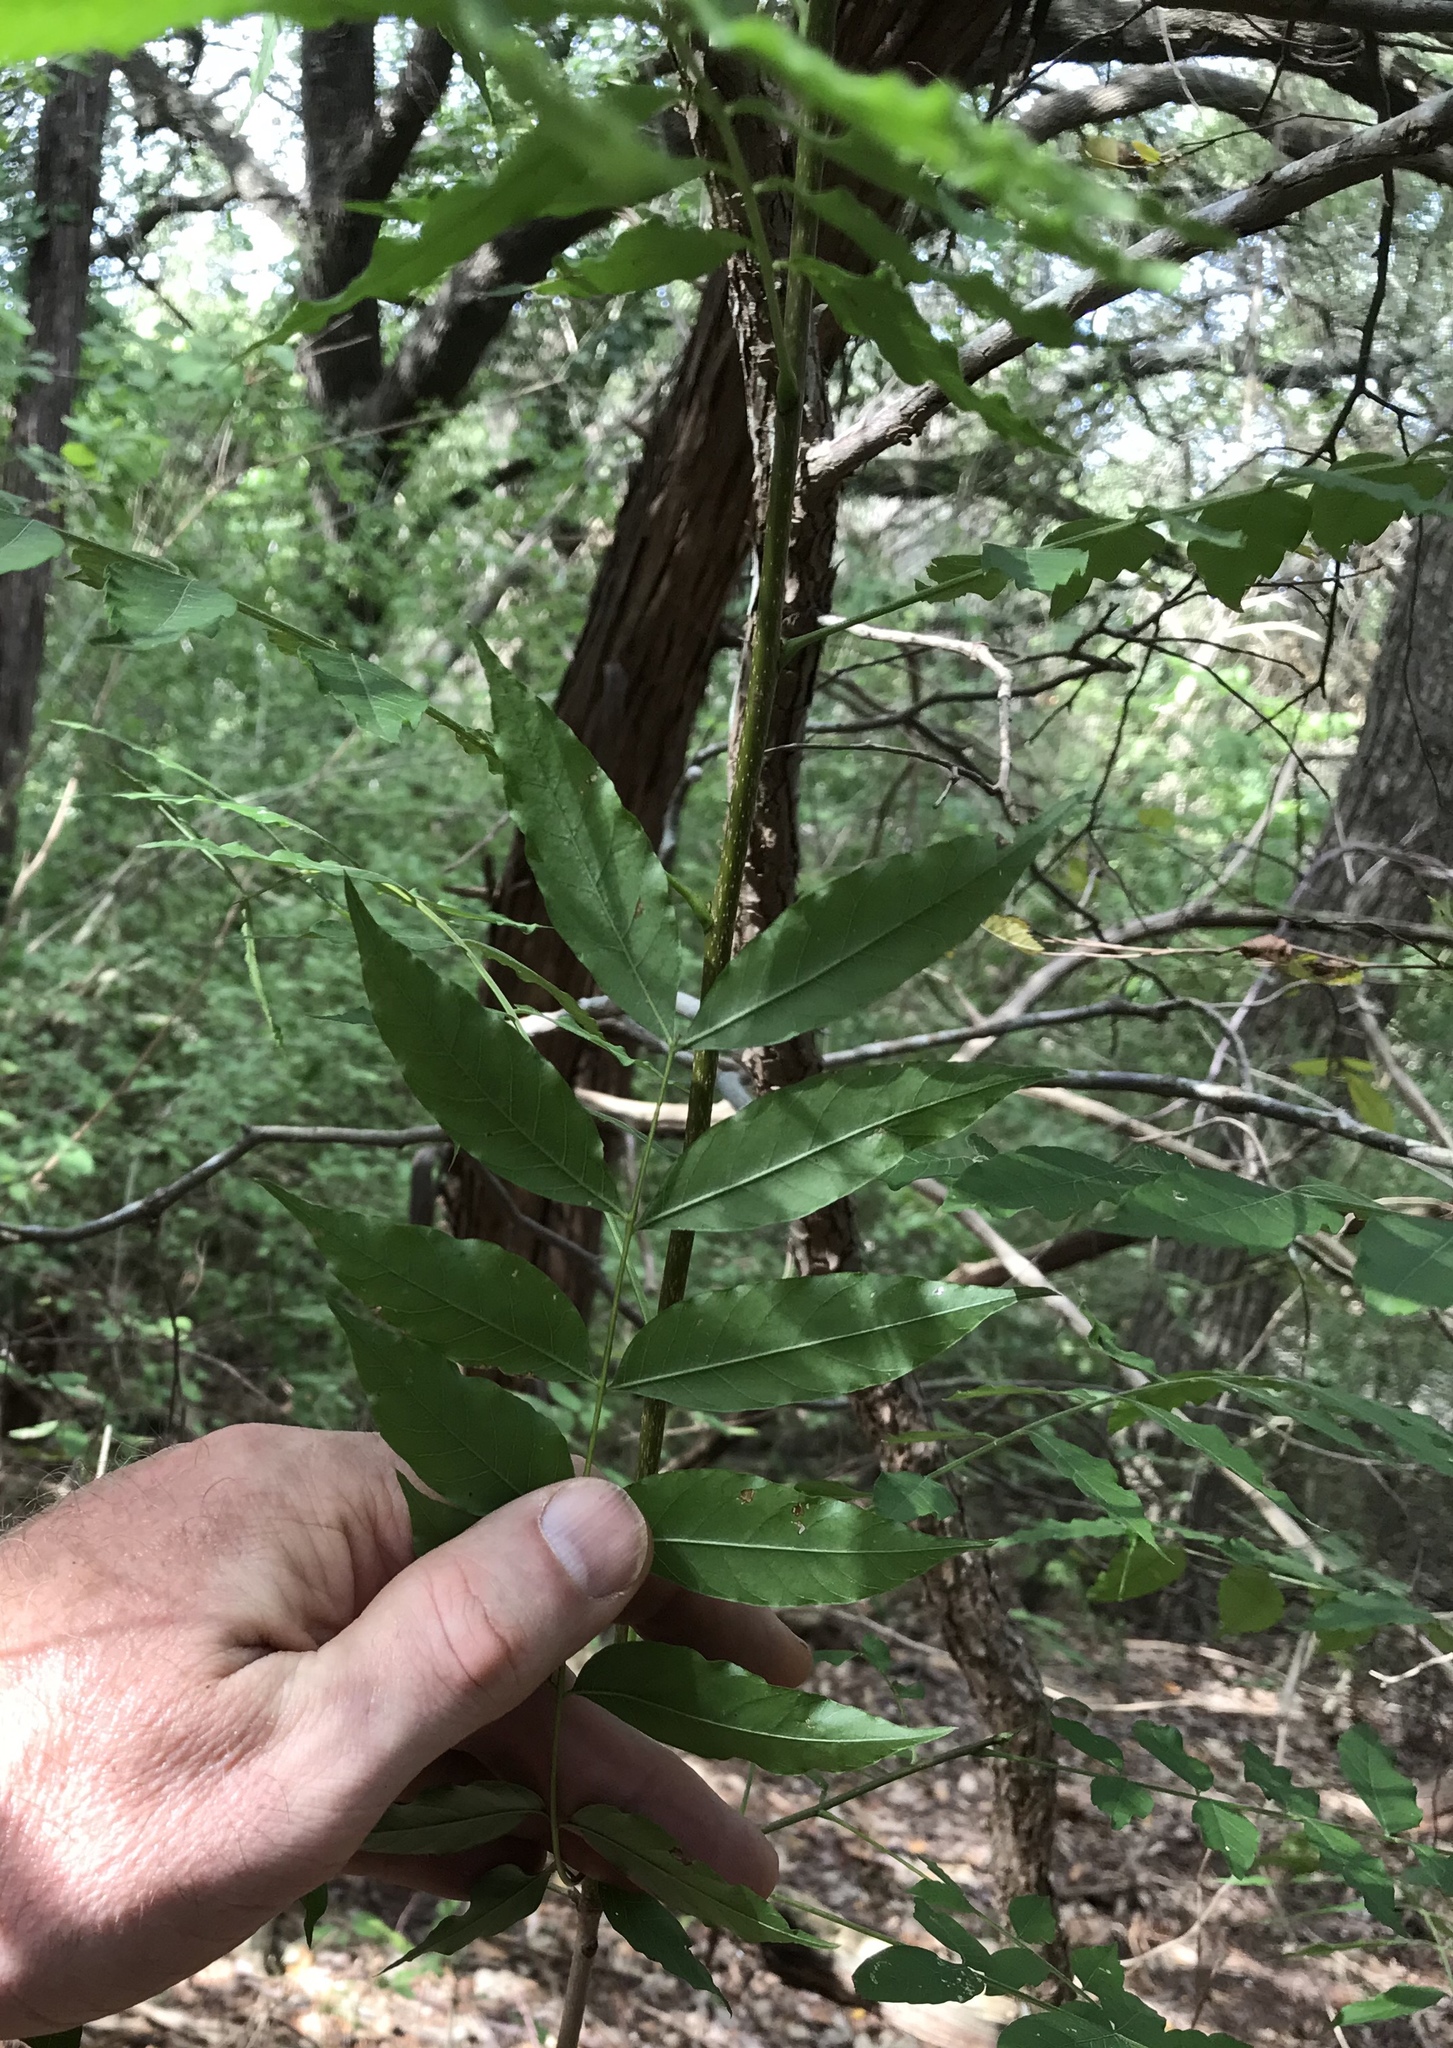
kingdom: Plantae
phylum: Tracheophyta
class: Magnoliopsida
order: Sapindales
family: Anacardiaceae
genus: Pistacia
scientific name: Pistacia chinensis
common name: Chinese pistache
